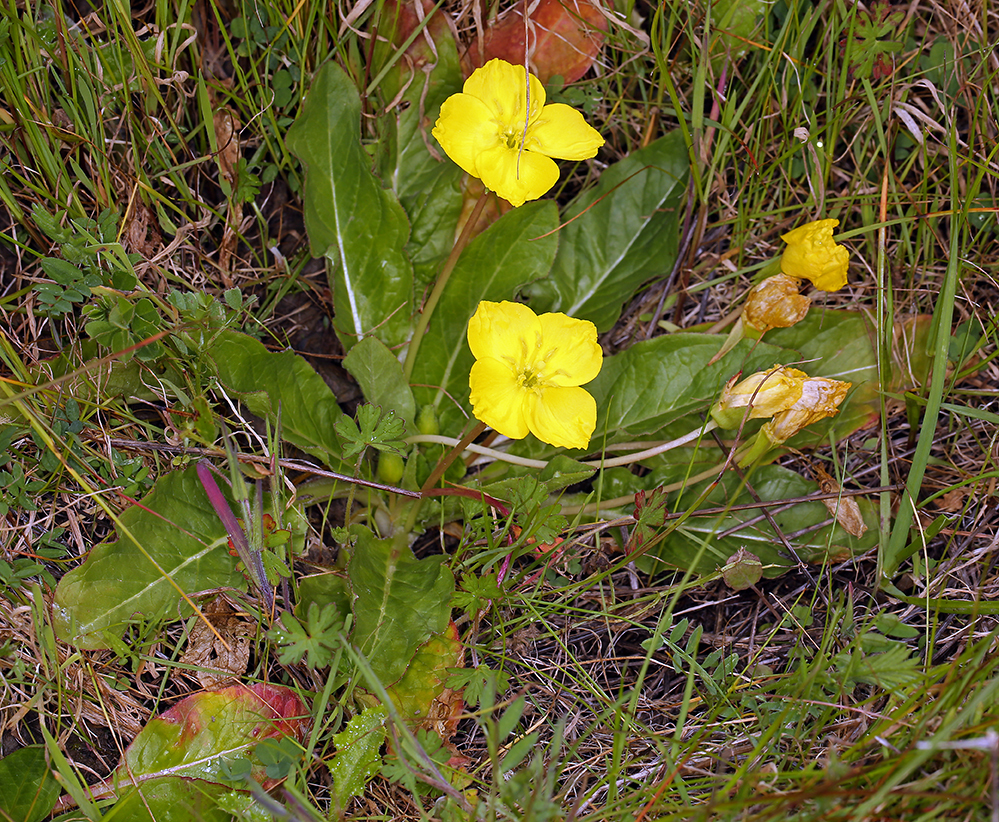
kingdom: Plantae
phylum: Tracheophyta
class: Magnoliopsida
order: Myrtales
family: Onagraceae
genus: Taraxia
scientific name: Taraxia ovata
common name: Goldeneggs
